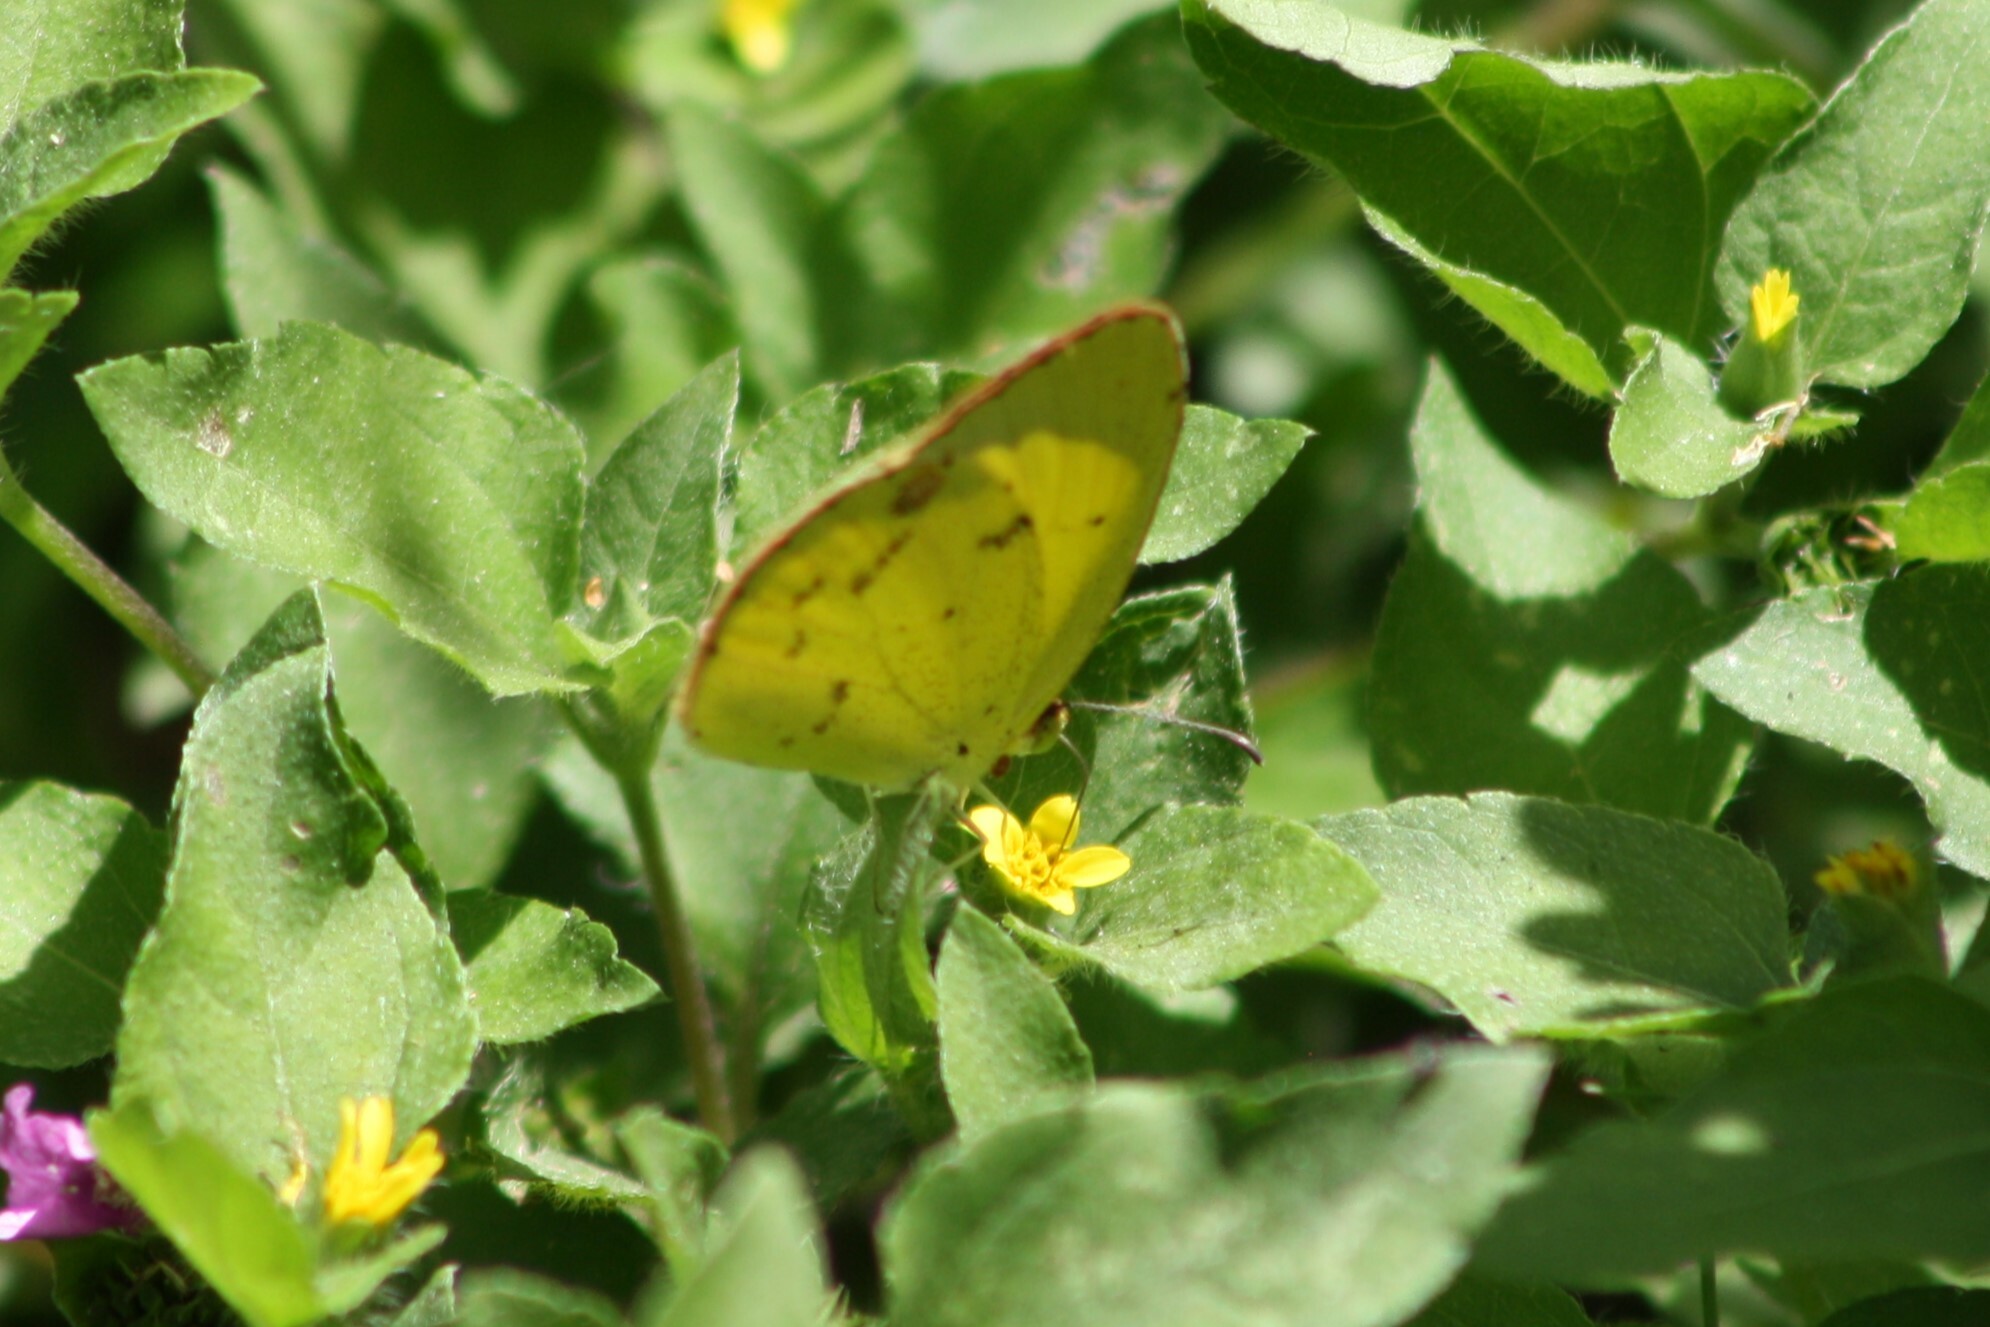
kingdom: Animalia
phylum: Arthropoda
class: Insecta
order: Lepidoptera
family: Pieridae
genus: Pyrisitia
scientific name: Pyrisitia lisa
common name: Little yellow
